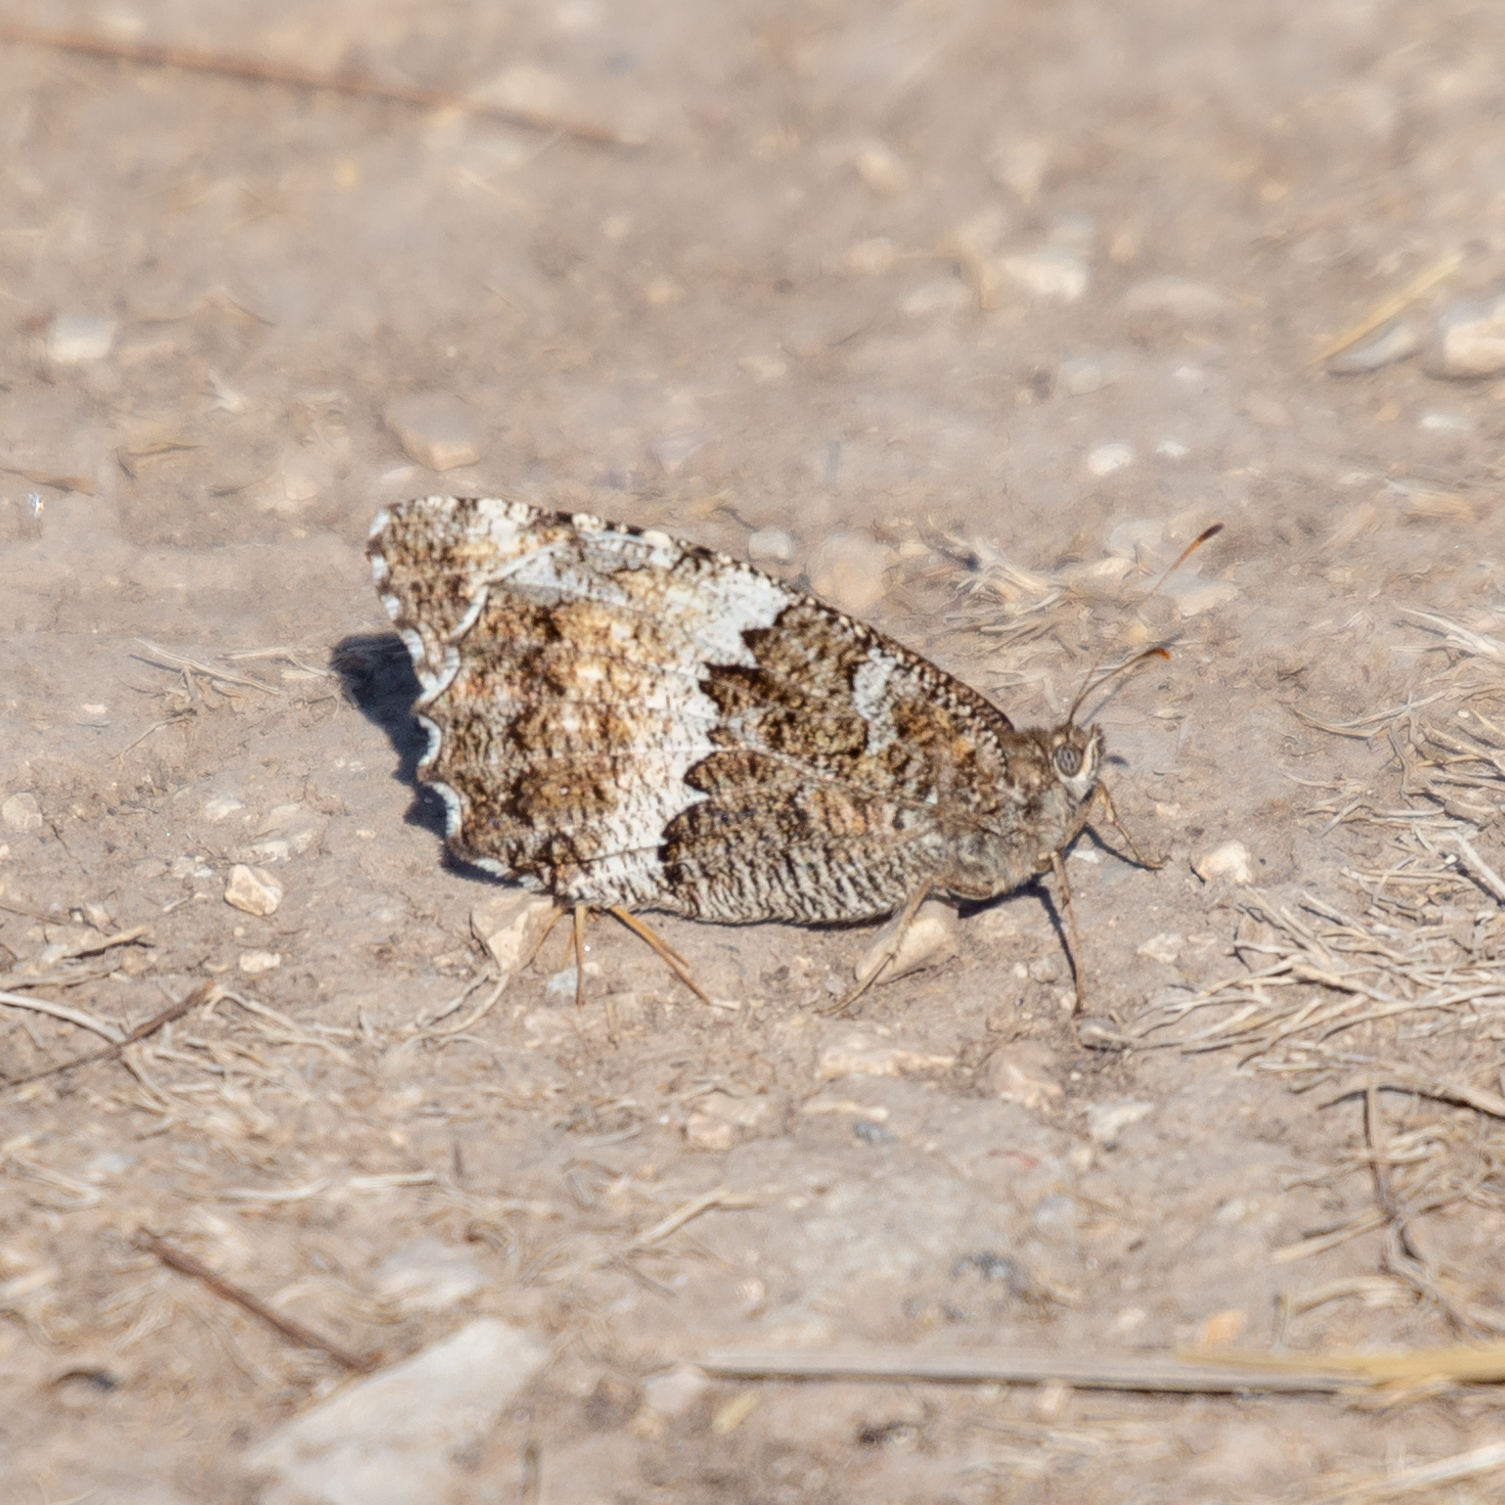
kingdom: Animalia
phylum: Arthropoda
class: Insecta
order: Lepidoptera
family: Lycaenidae
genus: Loweia
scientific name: Loweia tityrus
